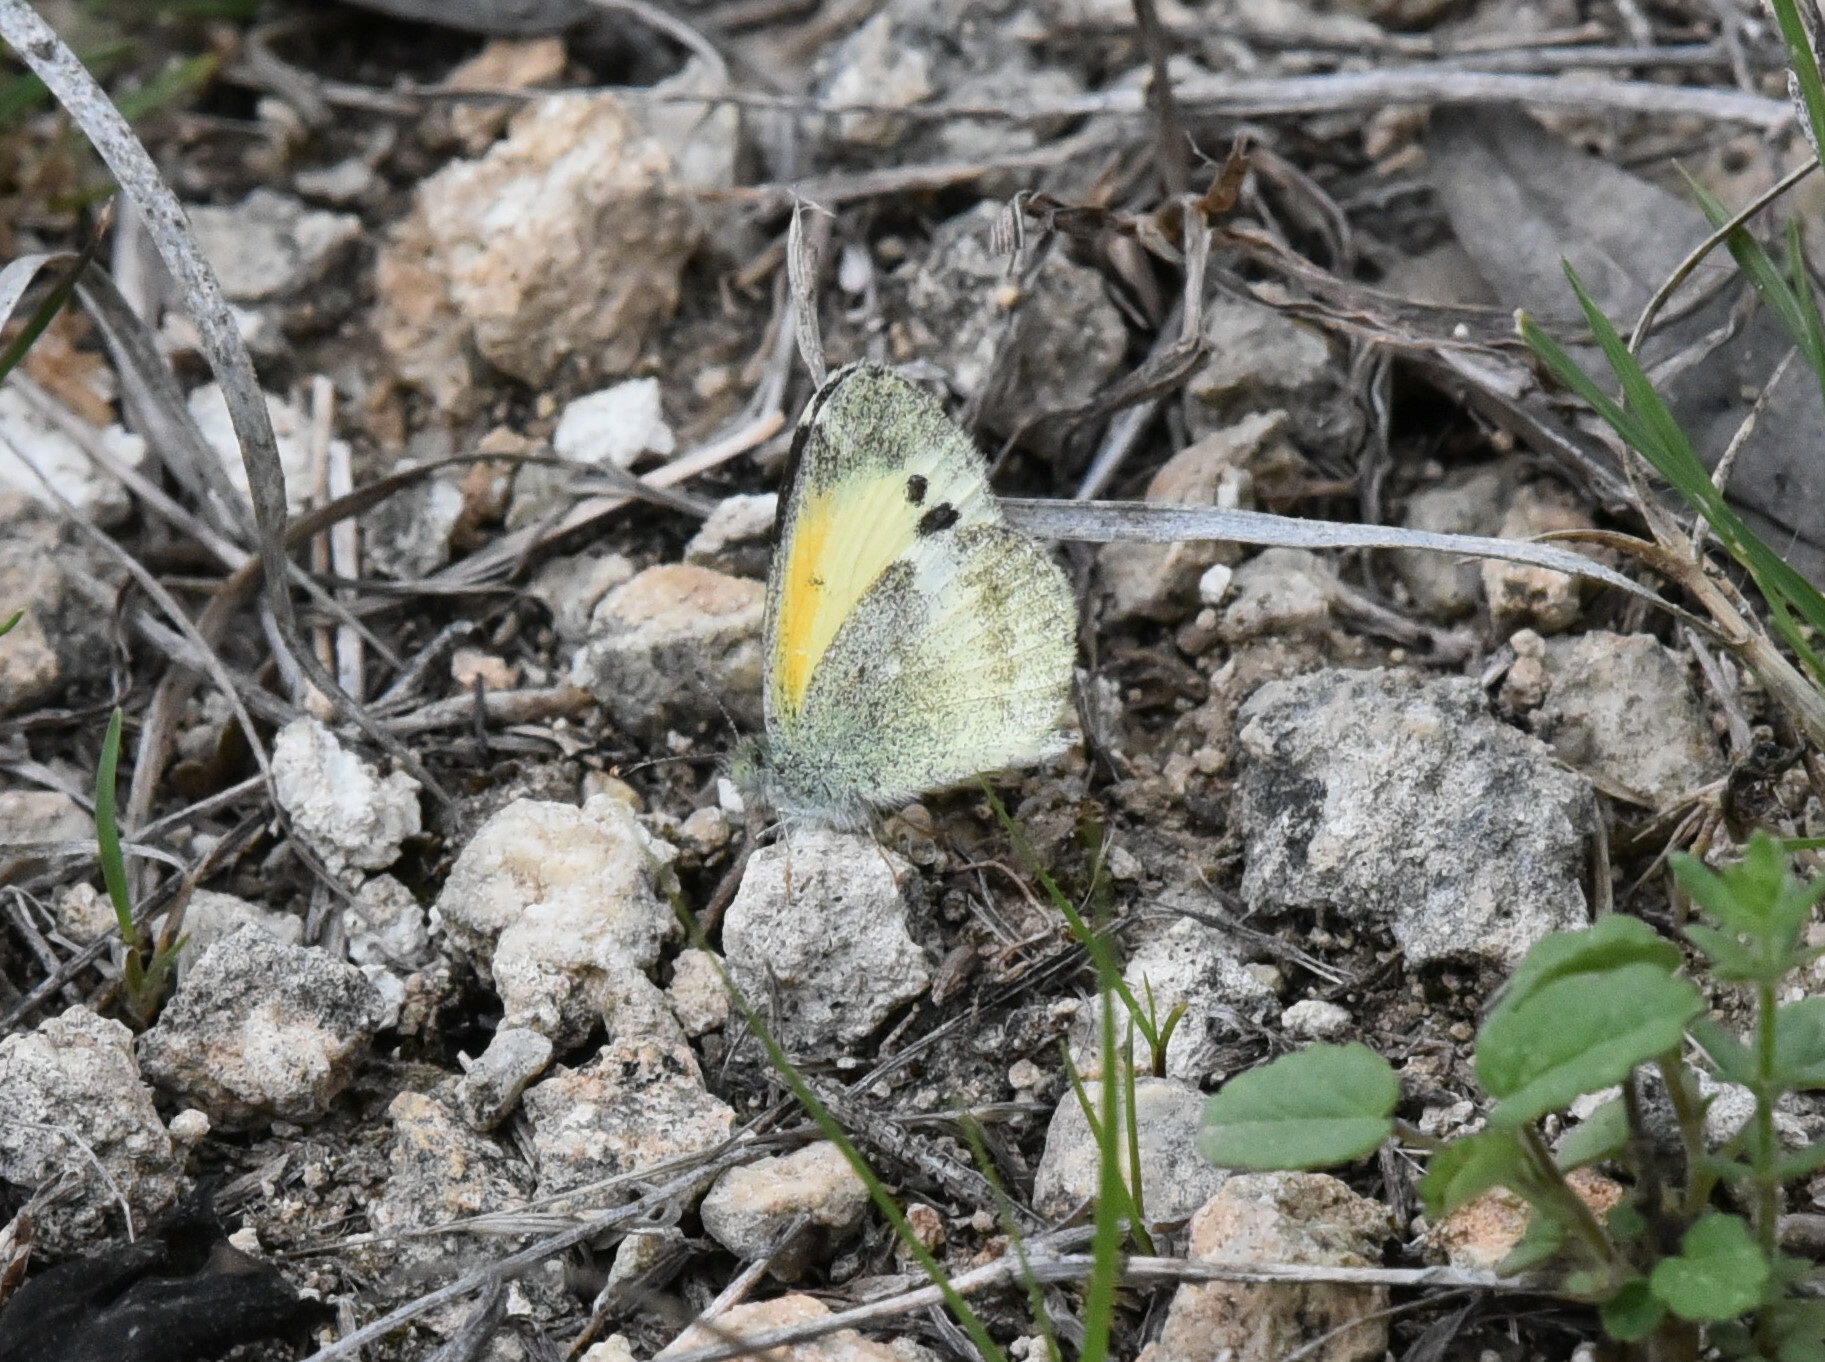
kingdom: Animalia
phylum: Arthropoda
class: Insecta
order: Lepidoptera
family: Pieridae
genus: Nathalis
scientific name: Nathalis iole
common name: Dainty sulphur
